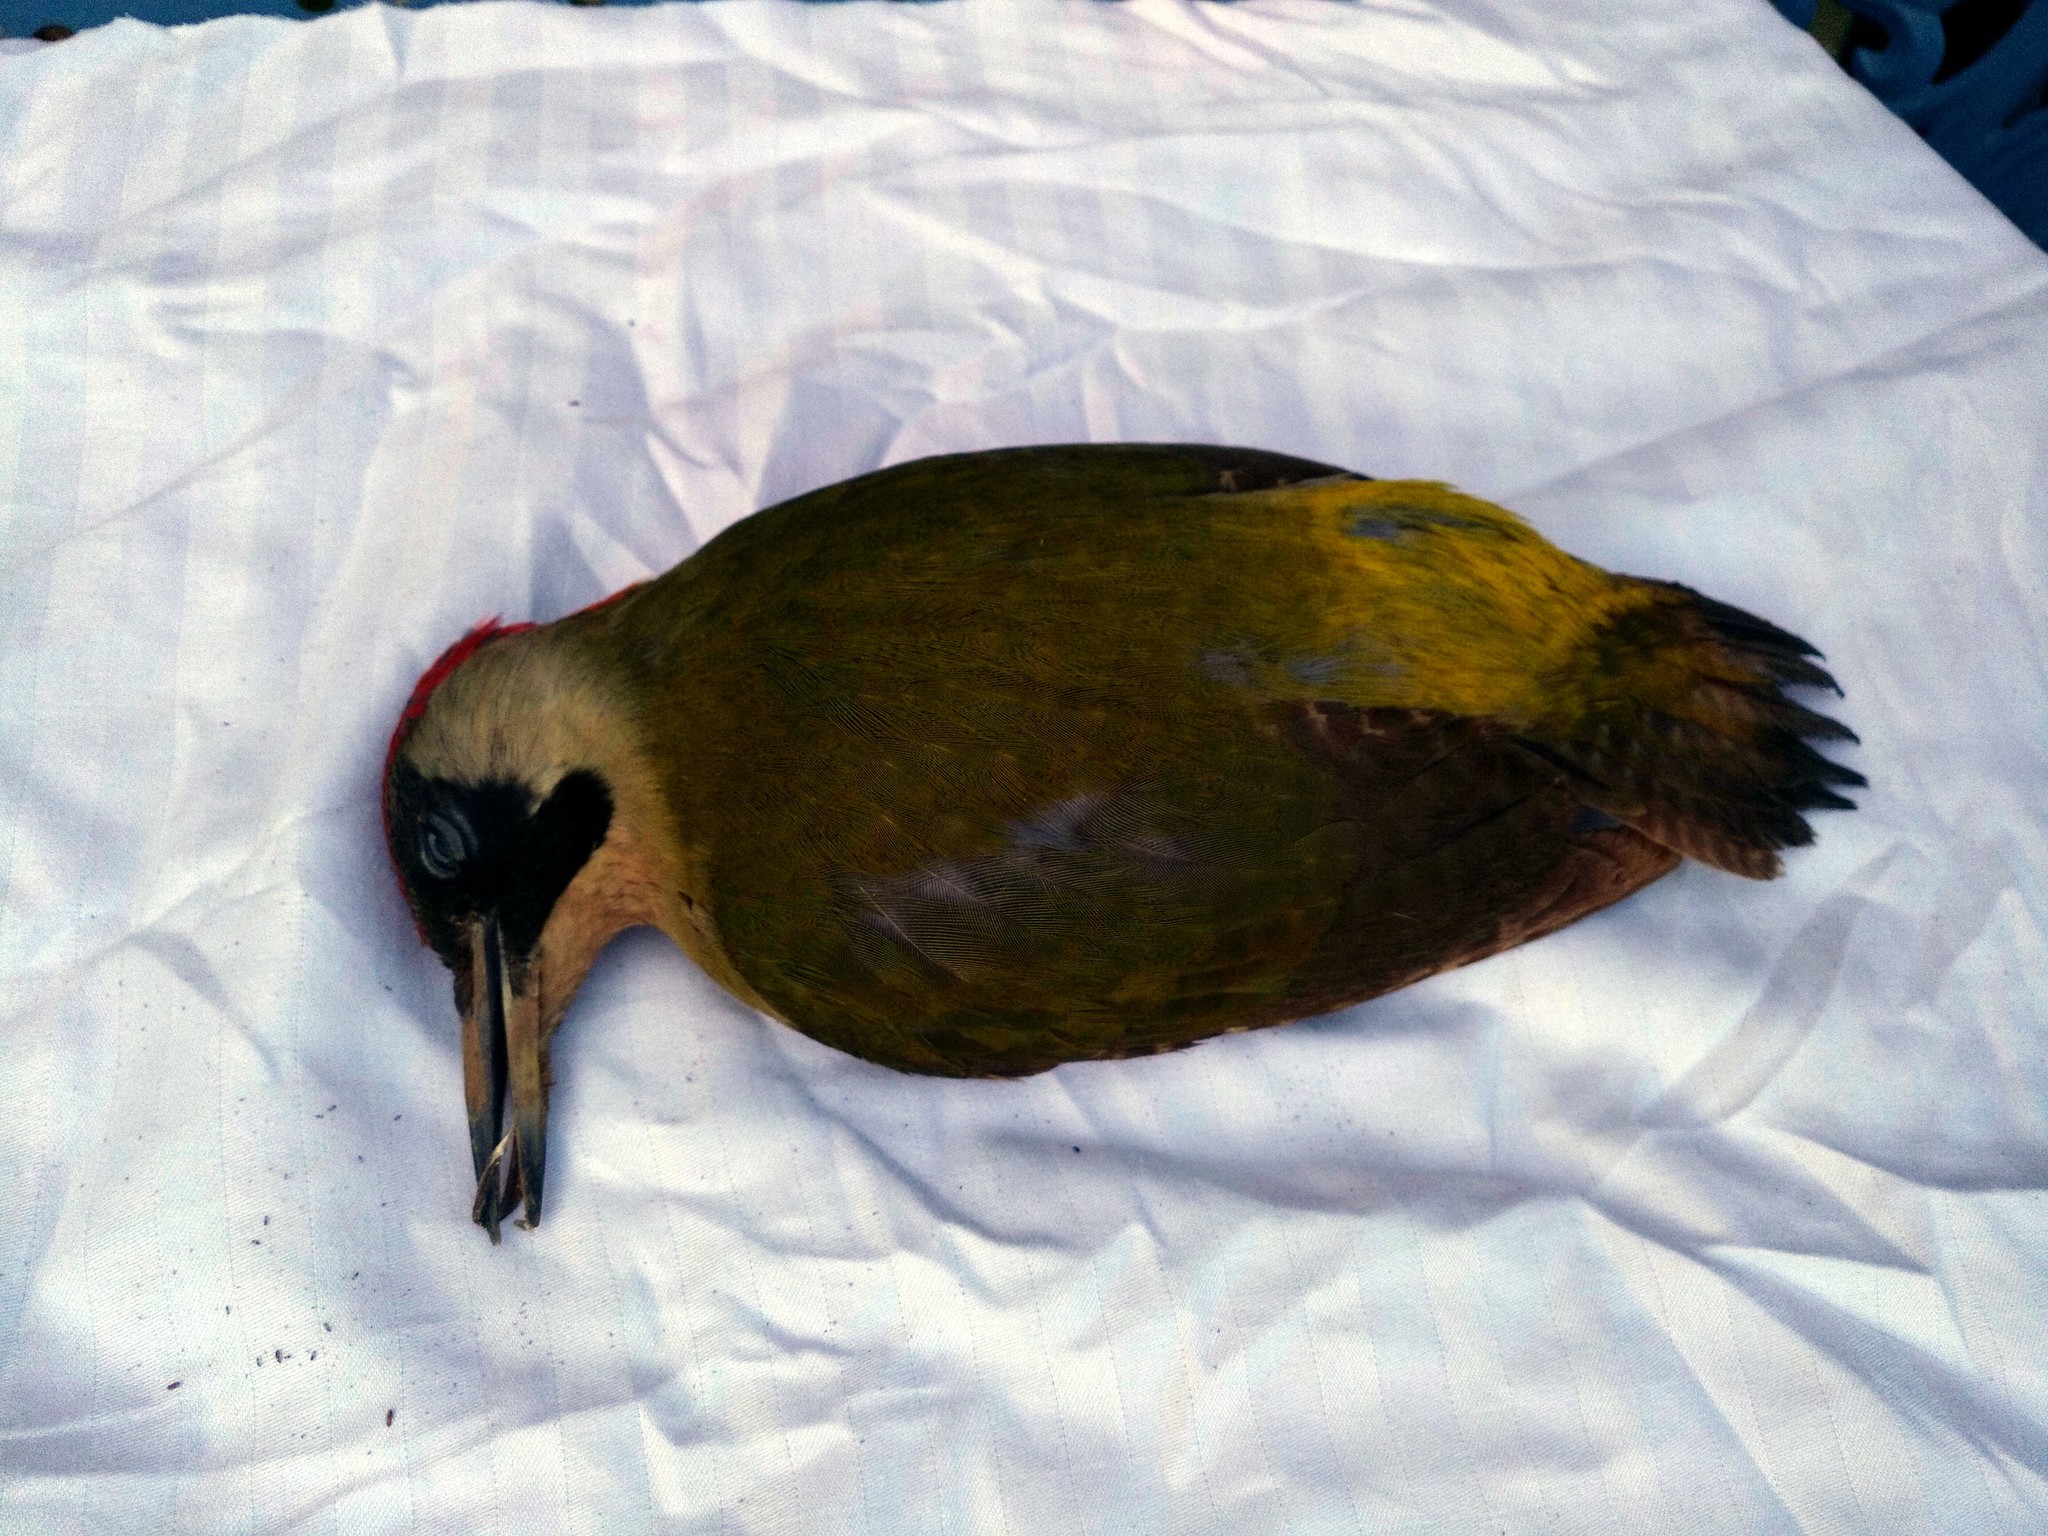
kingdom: Animalia
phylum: Chordata
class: Aves
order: Piciformes
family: Picidae
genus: Picus
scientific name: Picus viridis
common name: European green woodpecker
